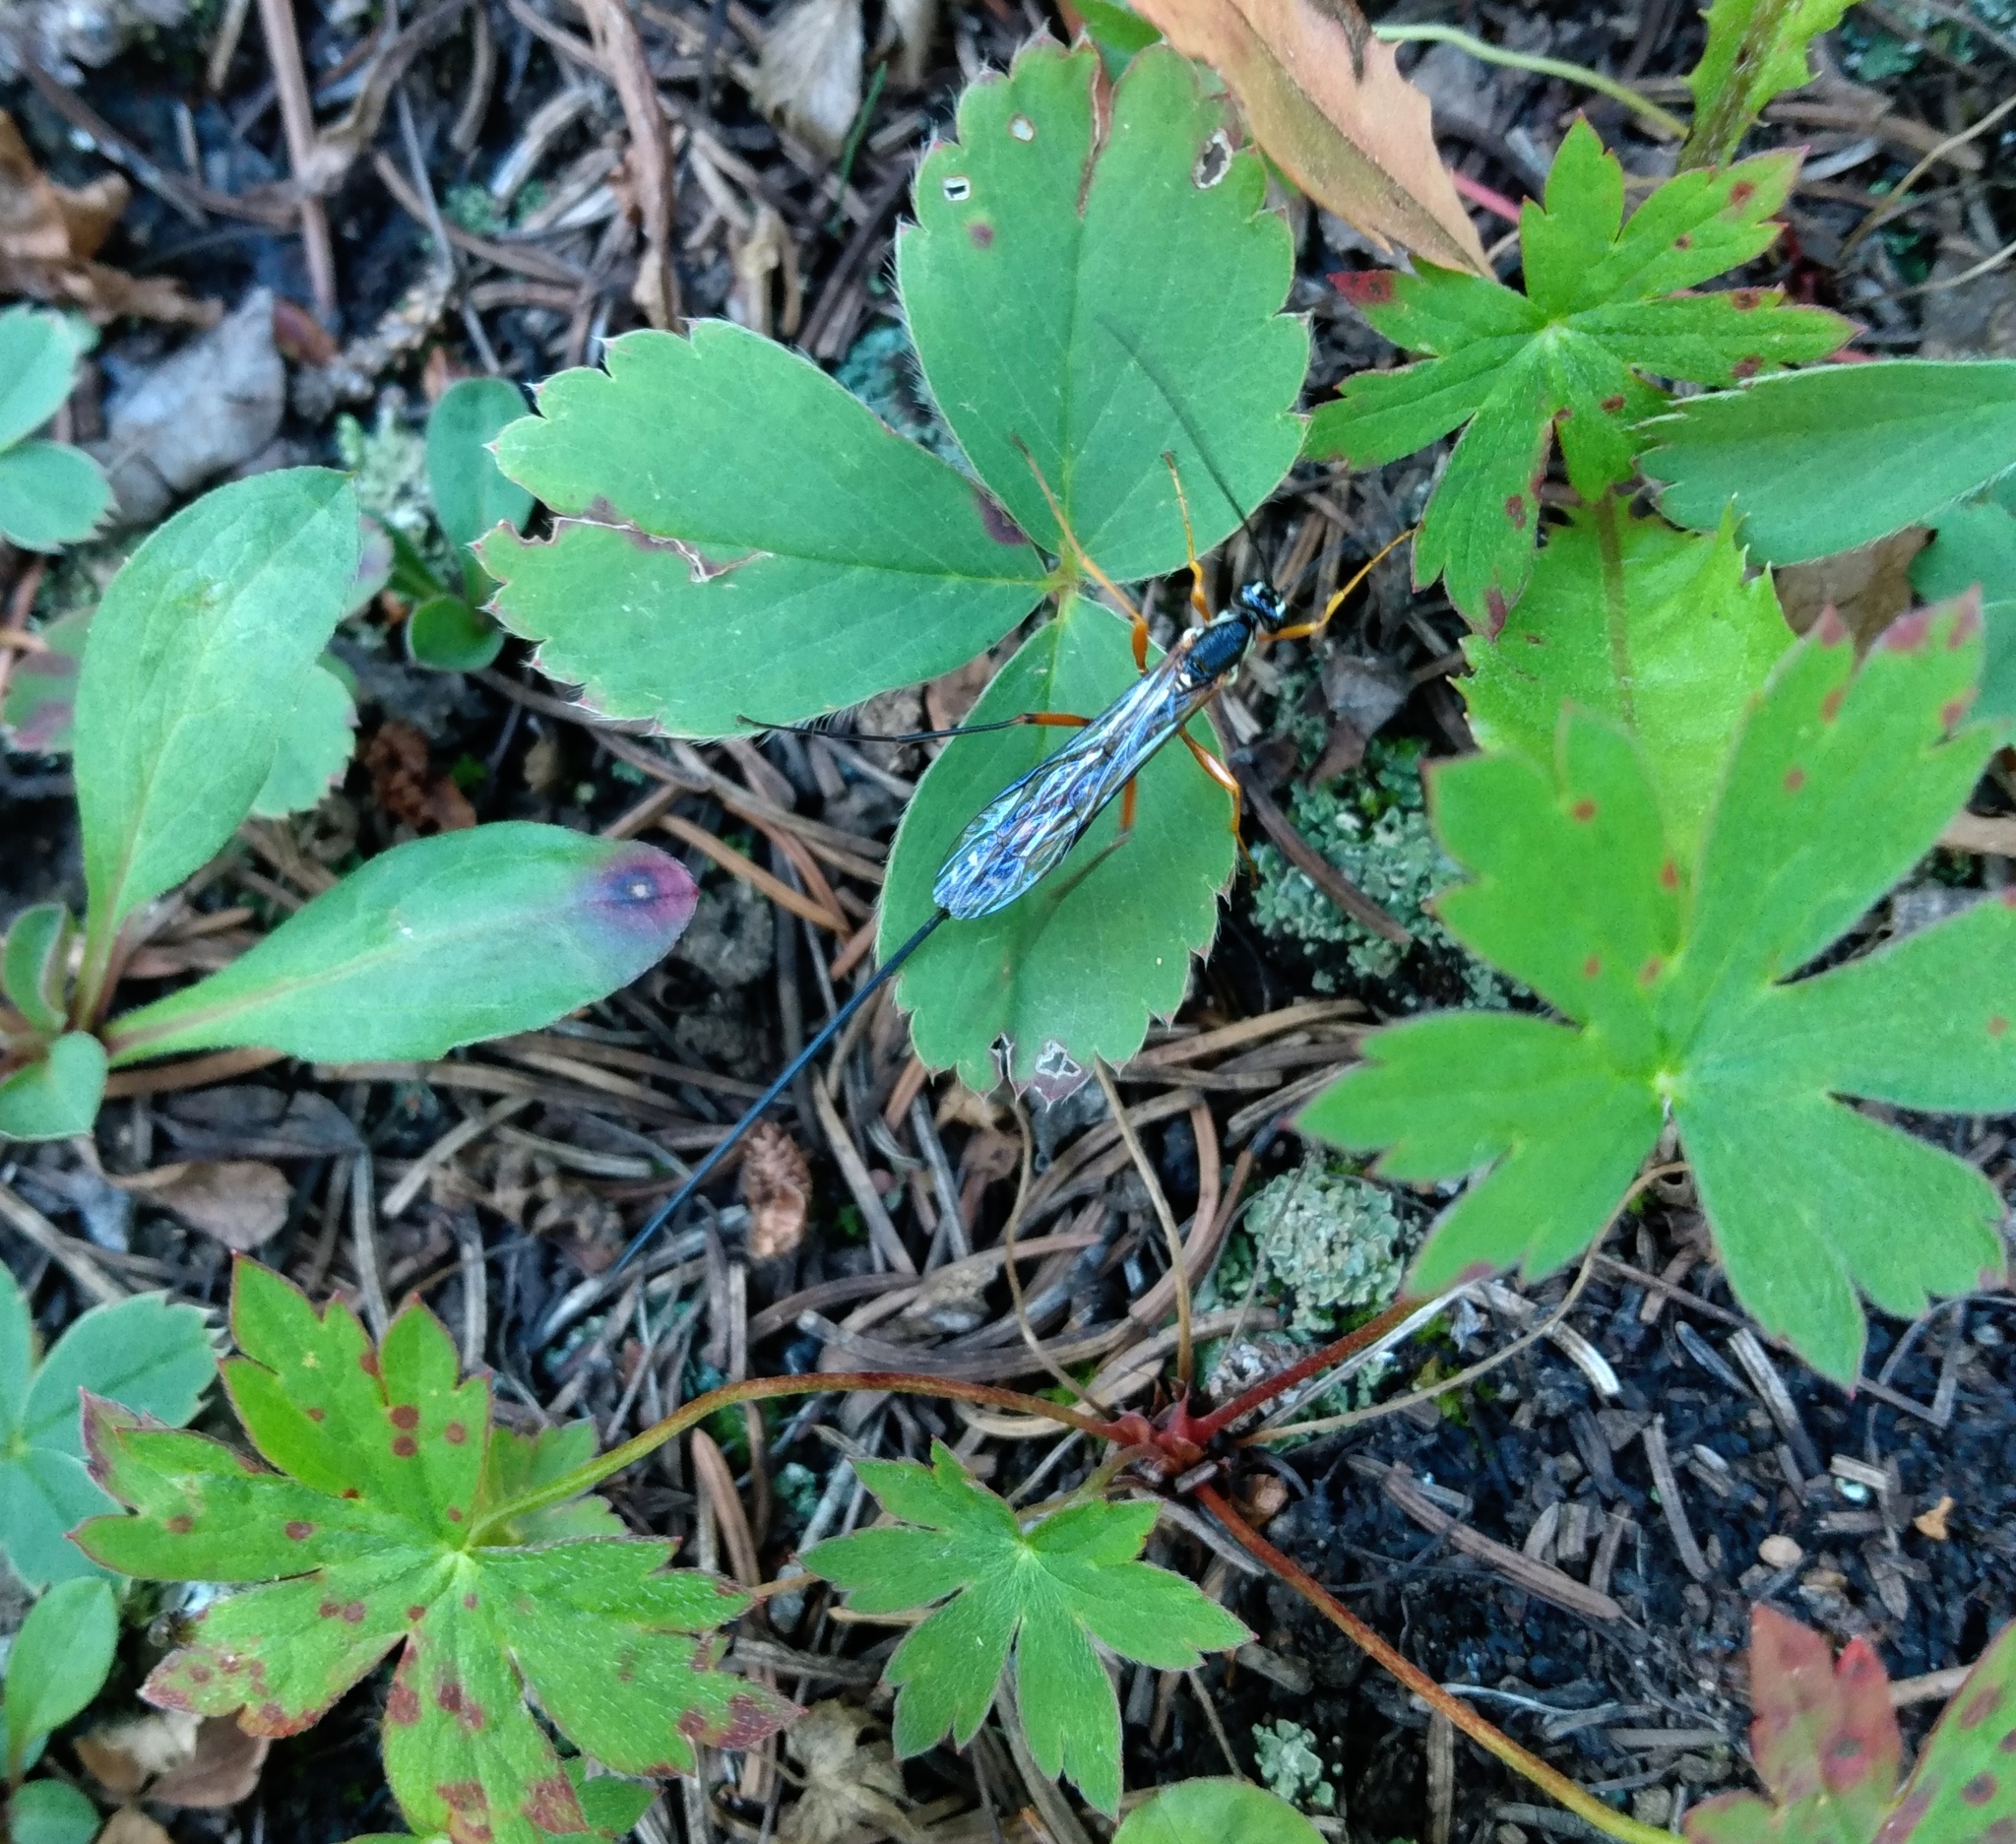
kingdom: Animalia
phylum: Arthropoda
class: Insecta
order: Hymenoptera
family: Ichneumonidae
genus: Rhyssa
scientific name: Rhyssa alaskensis
